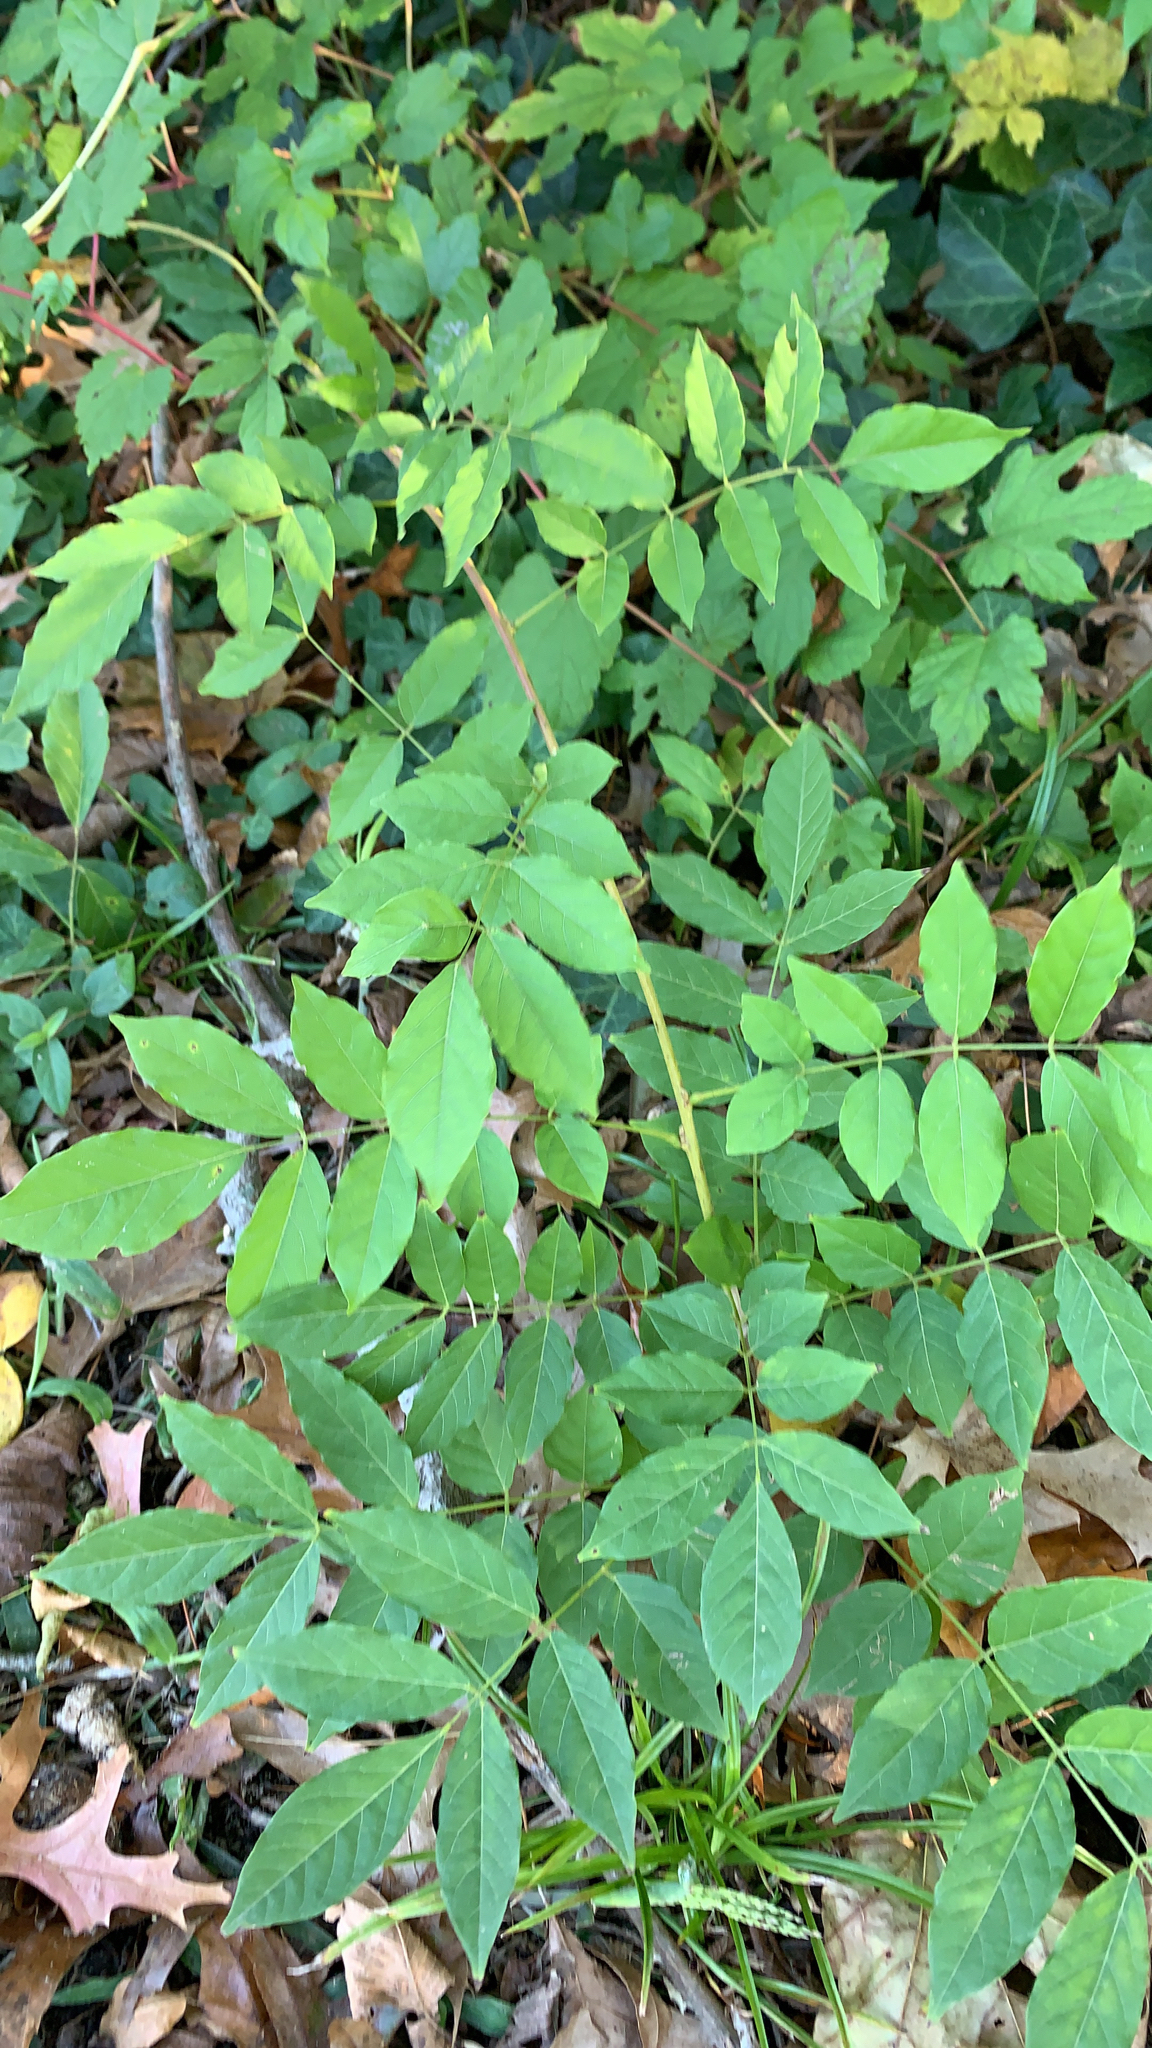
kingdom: Plantae
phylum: Tracheophyta
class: Magnoliopsida
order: Fabales
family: Fabaceae
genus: Wisteria
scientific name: Wisteria sinensis
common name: Chinese wisteria
